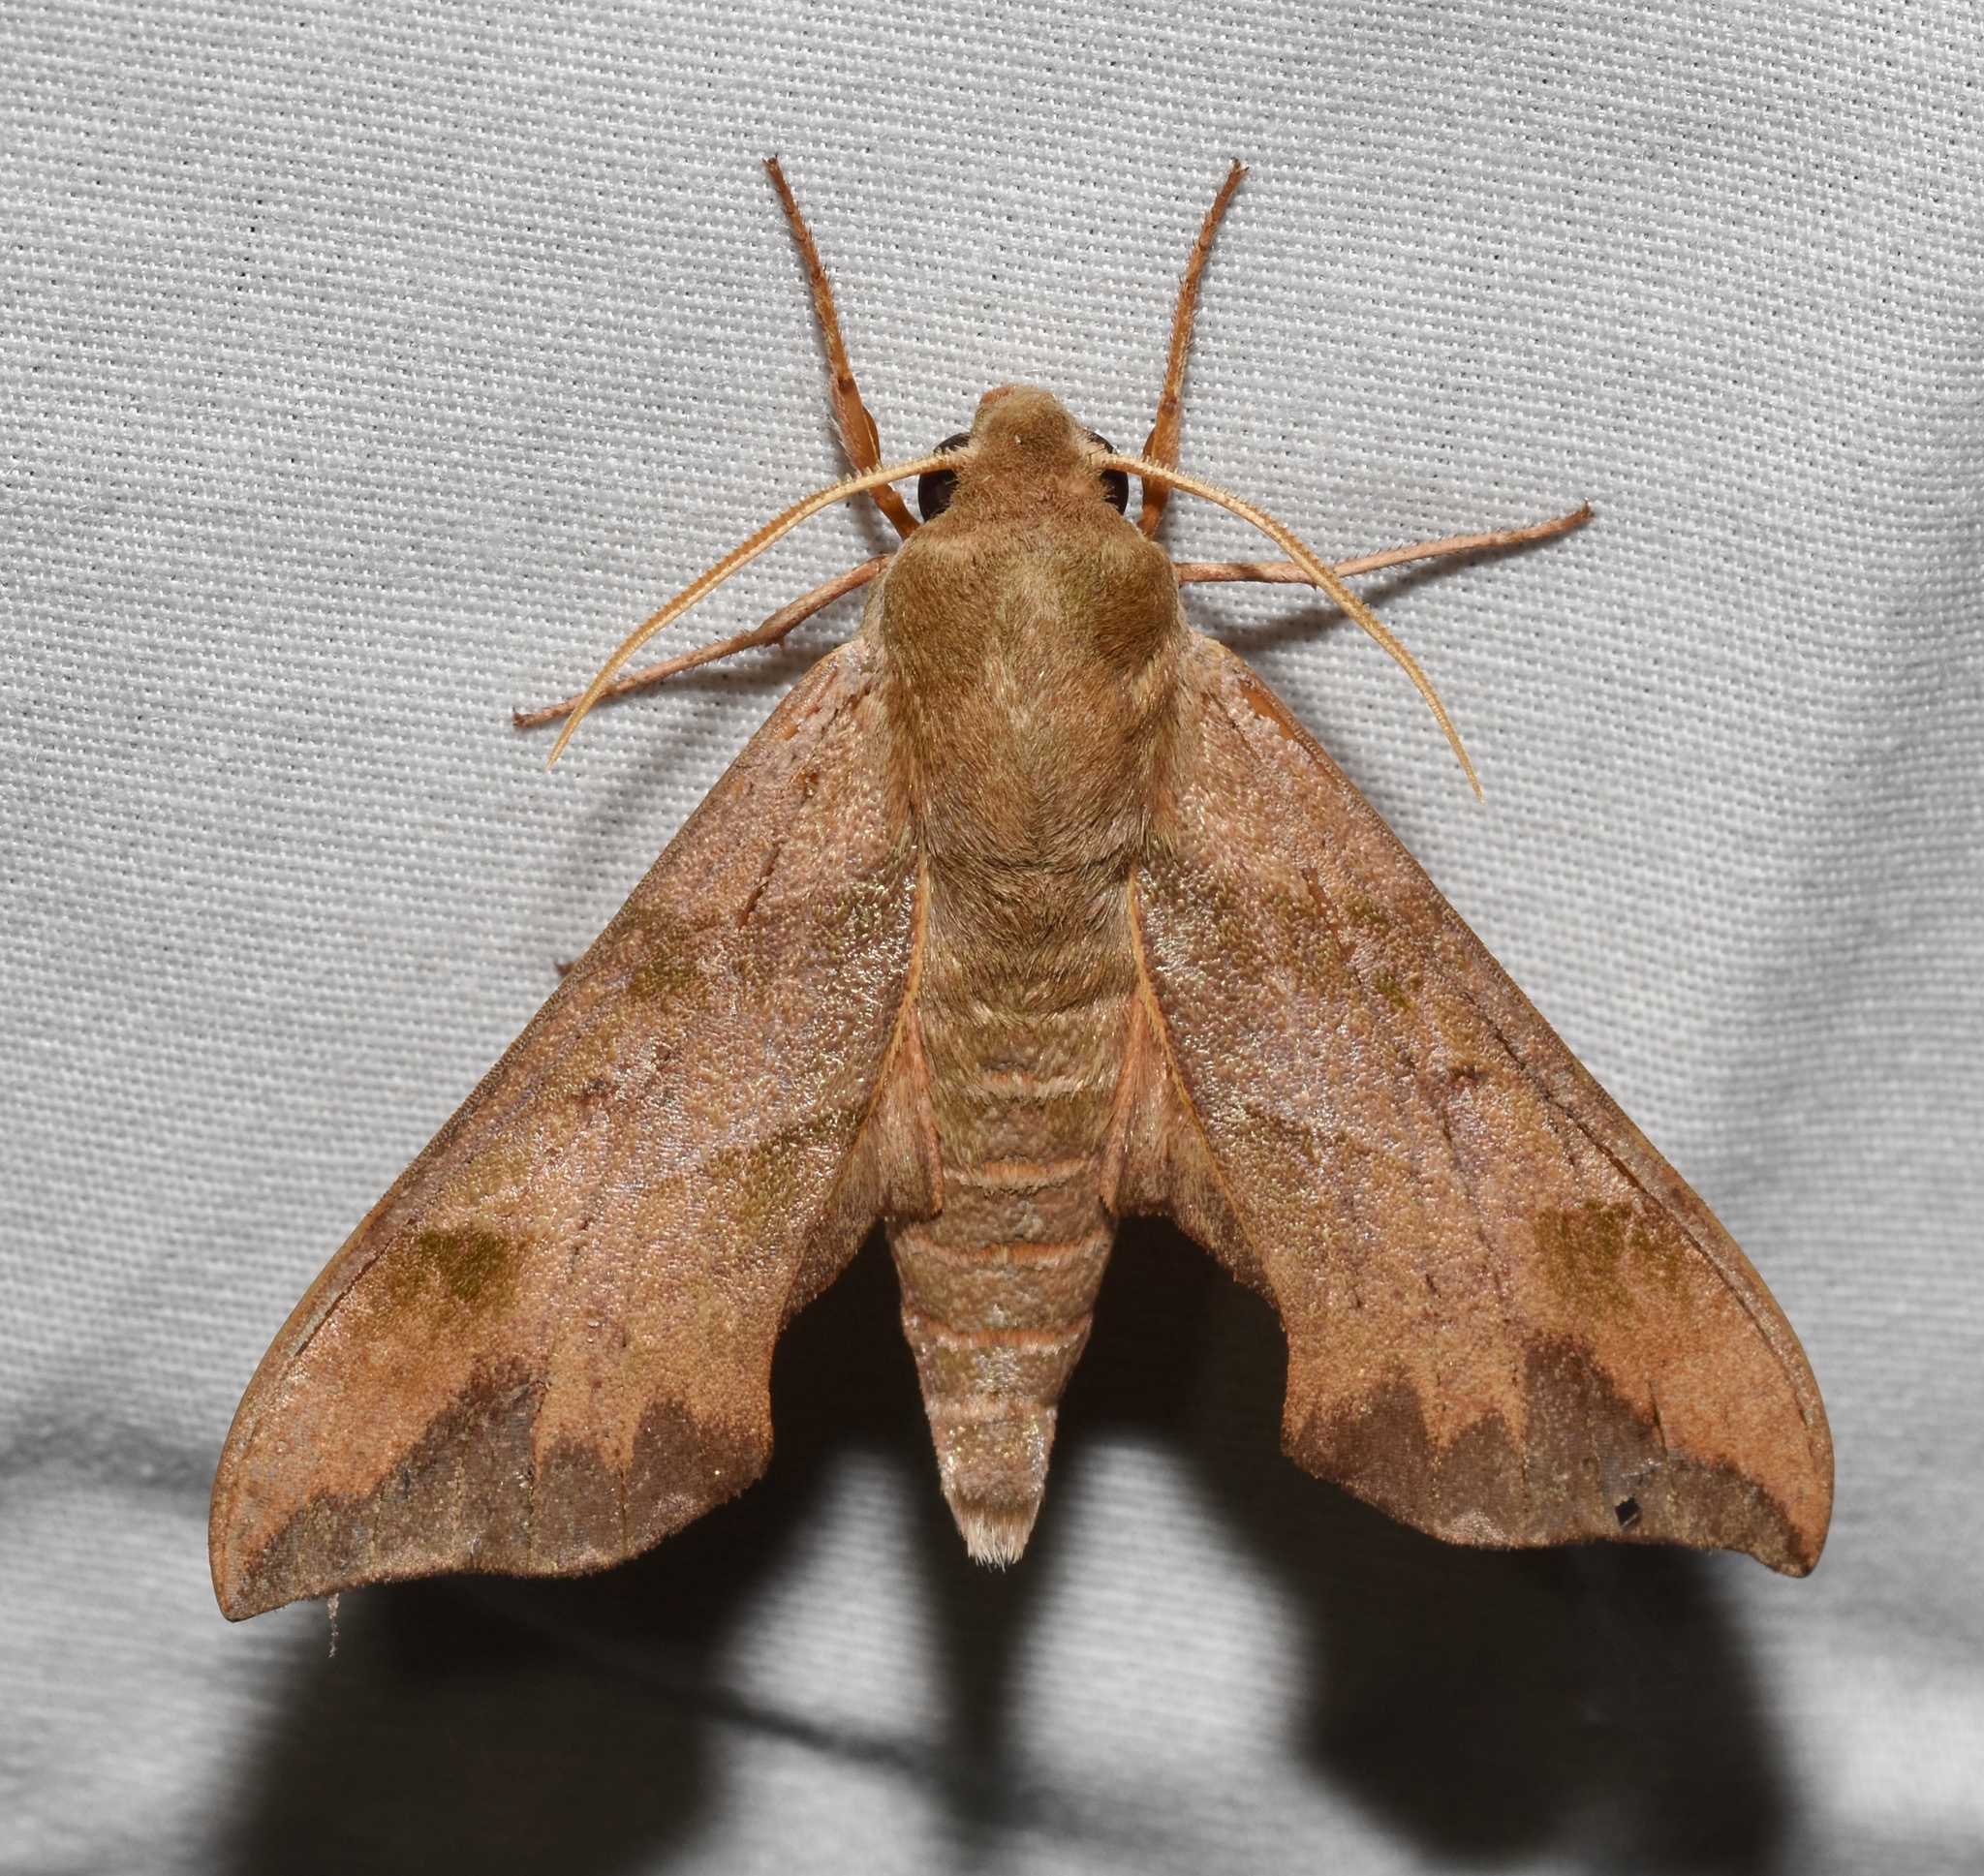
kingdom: Animalia
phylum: Arthropoda
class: Insecta
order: Lepidoptera
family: Sphingidae
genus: Darapsa
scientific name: Darapsa myron
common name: Hog sphinx
